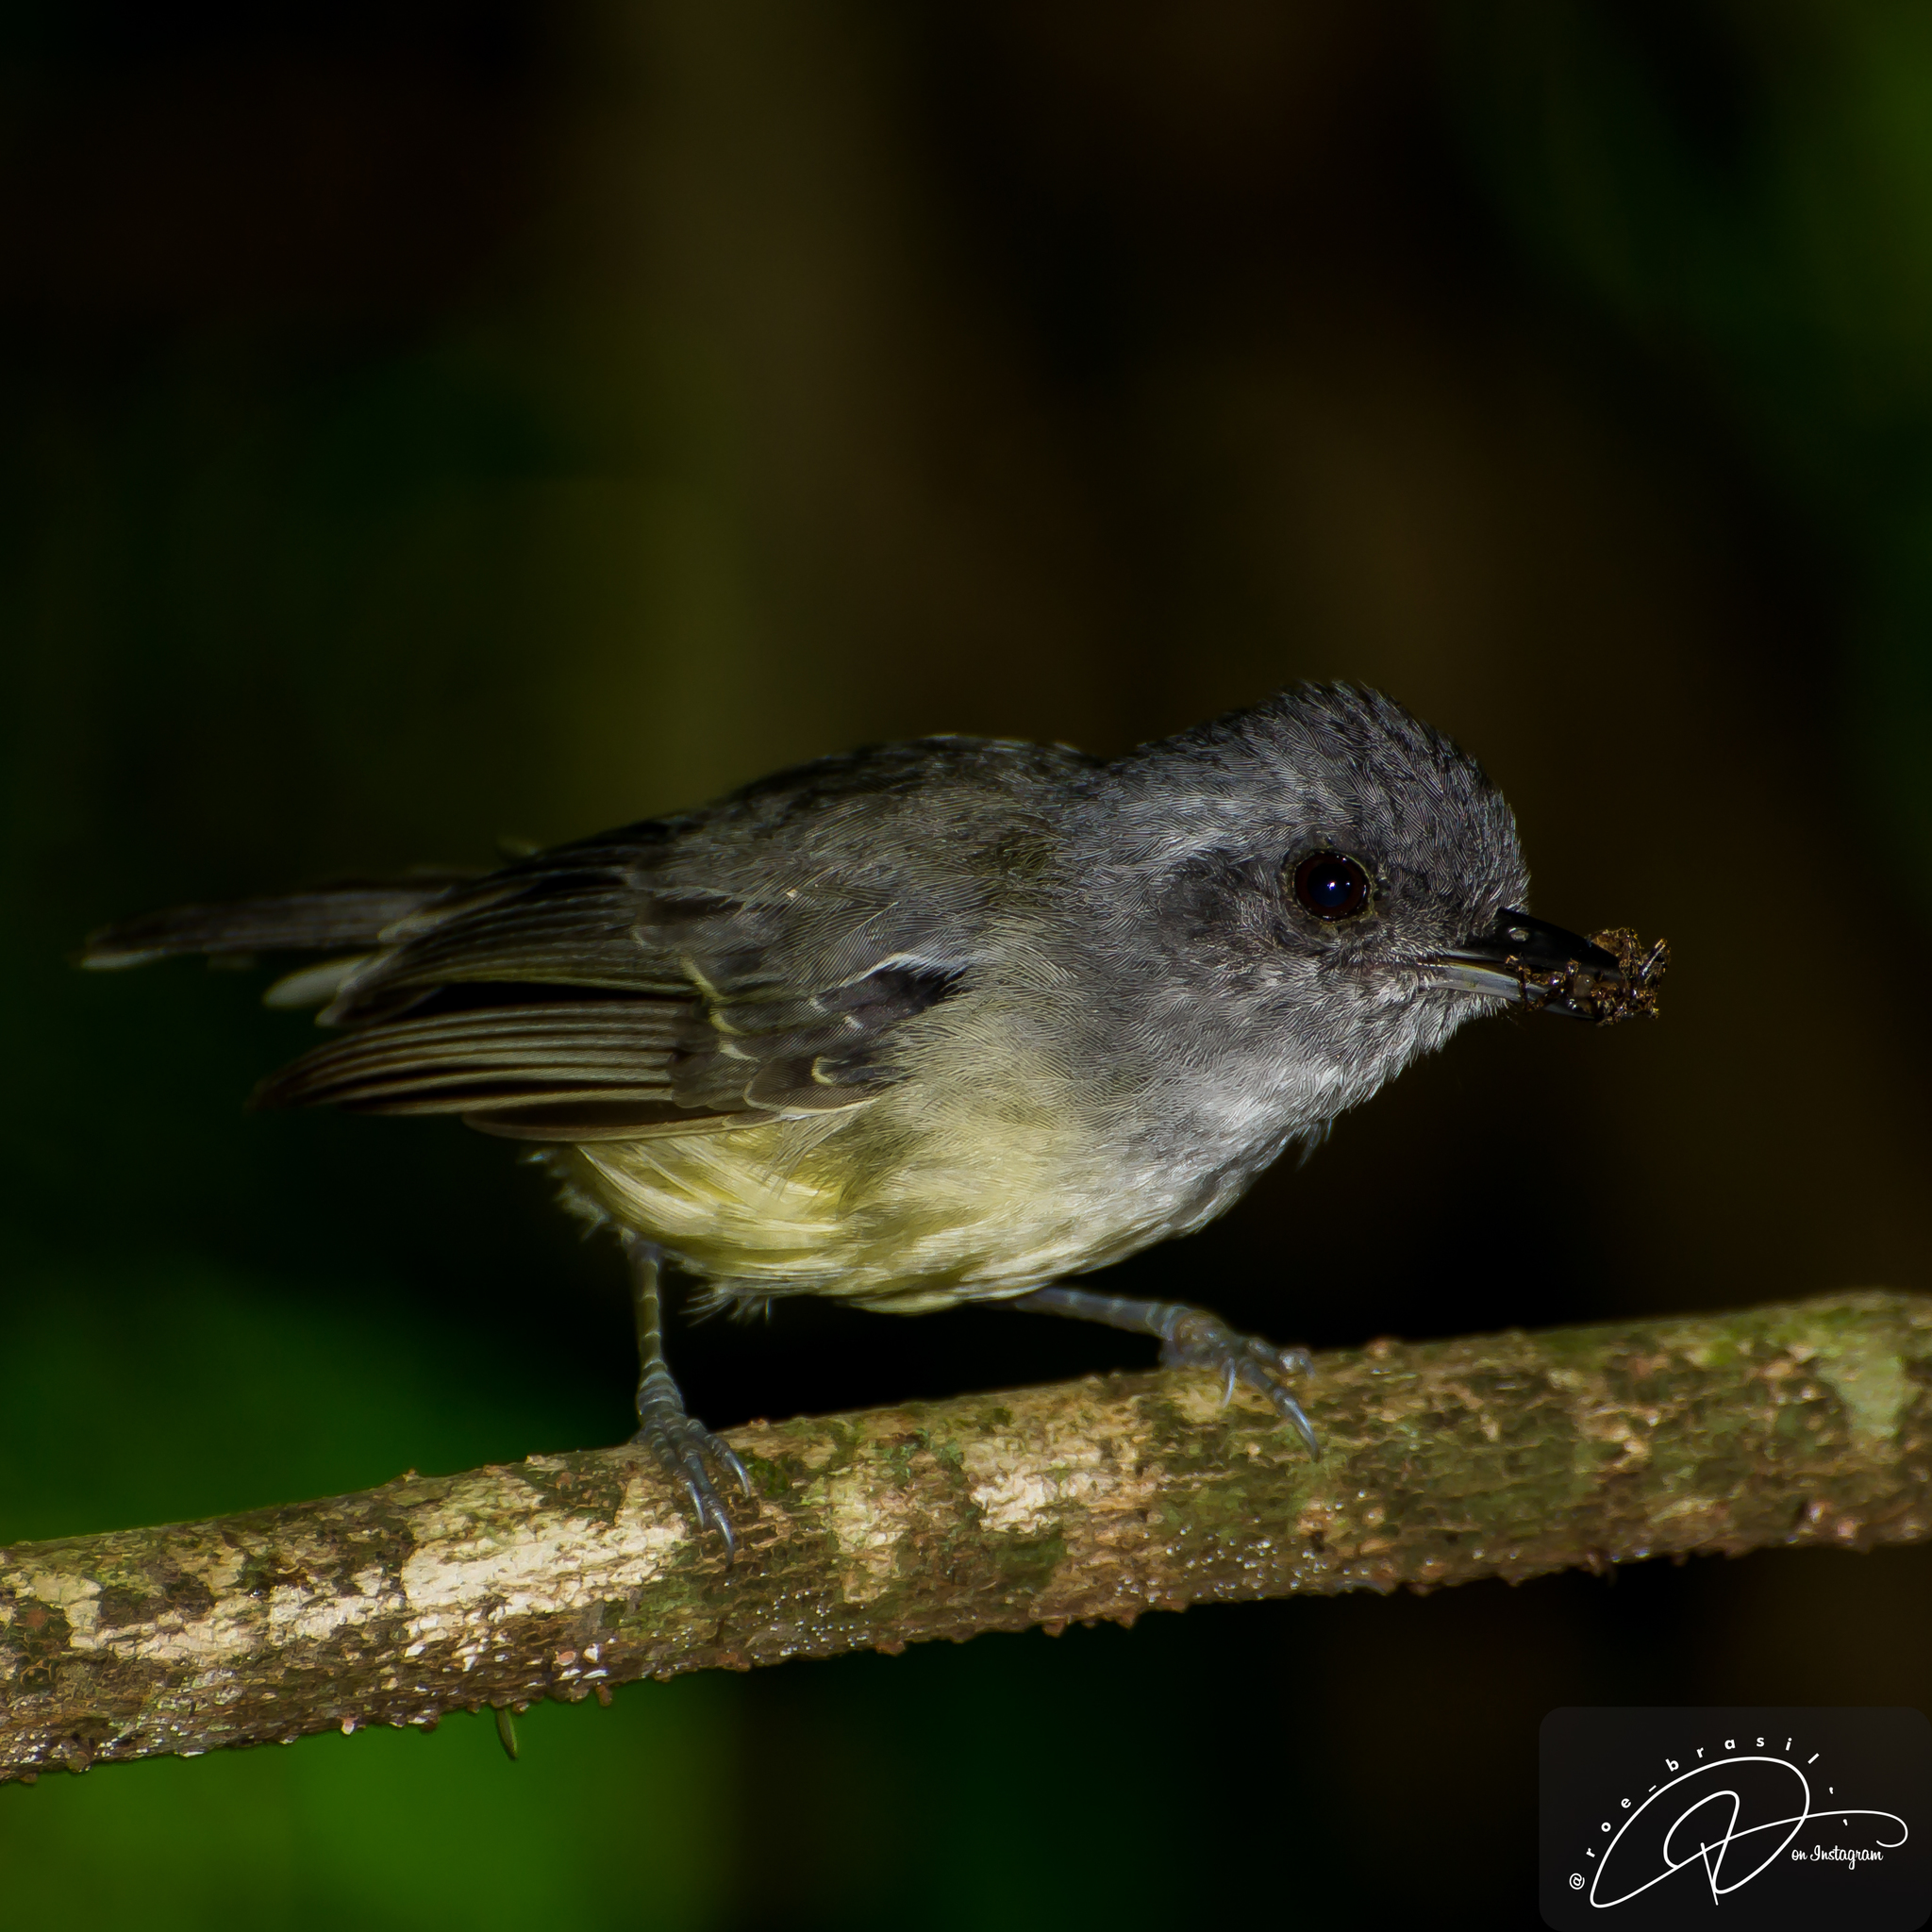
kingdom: Animalia
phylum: Chordata
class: Aves
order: Passeriformes
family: Thamnophilidae
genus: Dysithamnus
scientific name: Dysithamnus mentalis
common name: Plain antvireo
